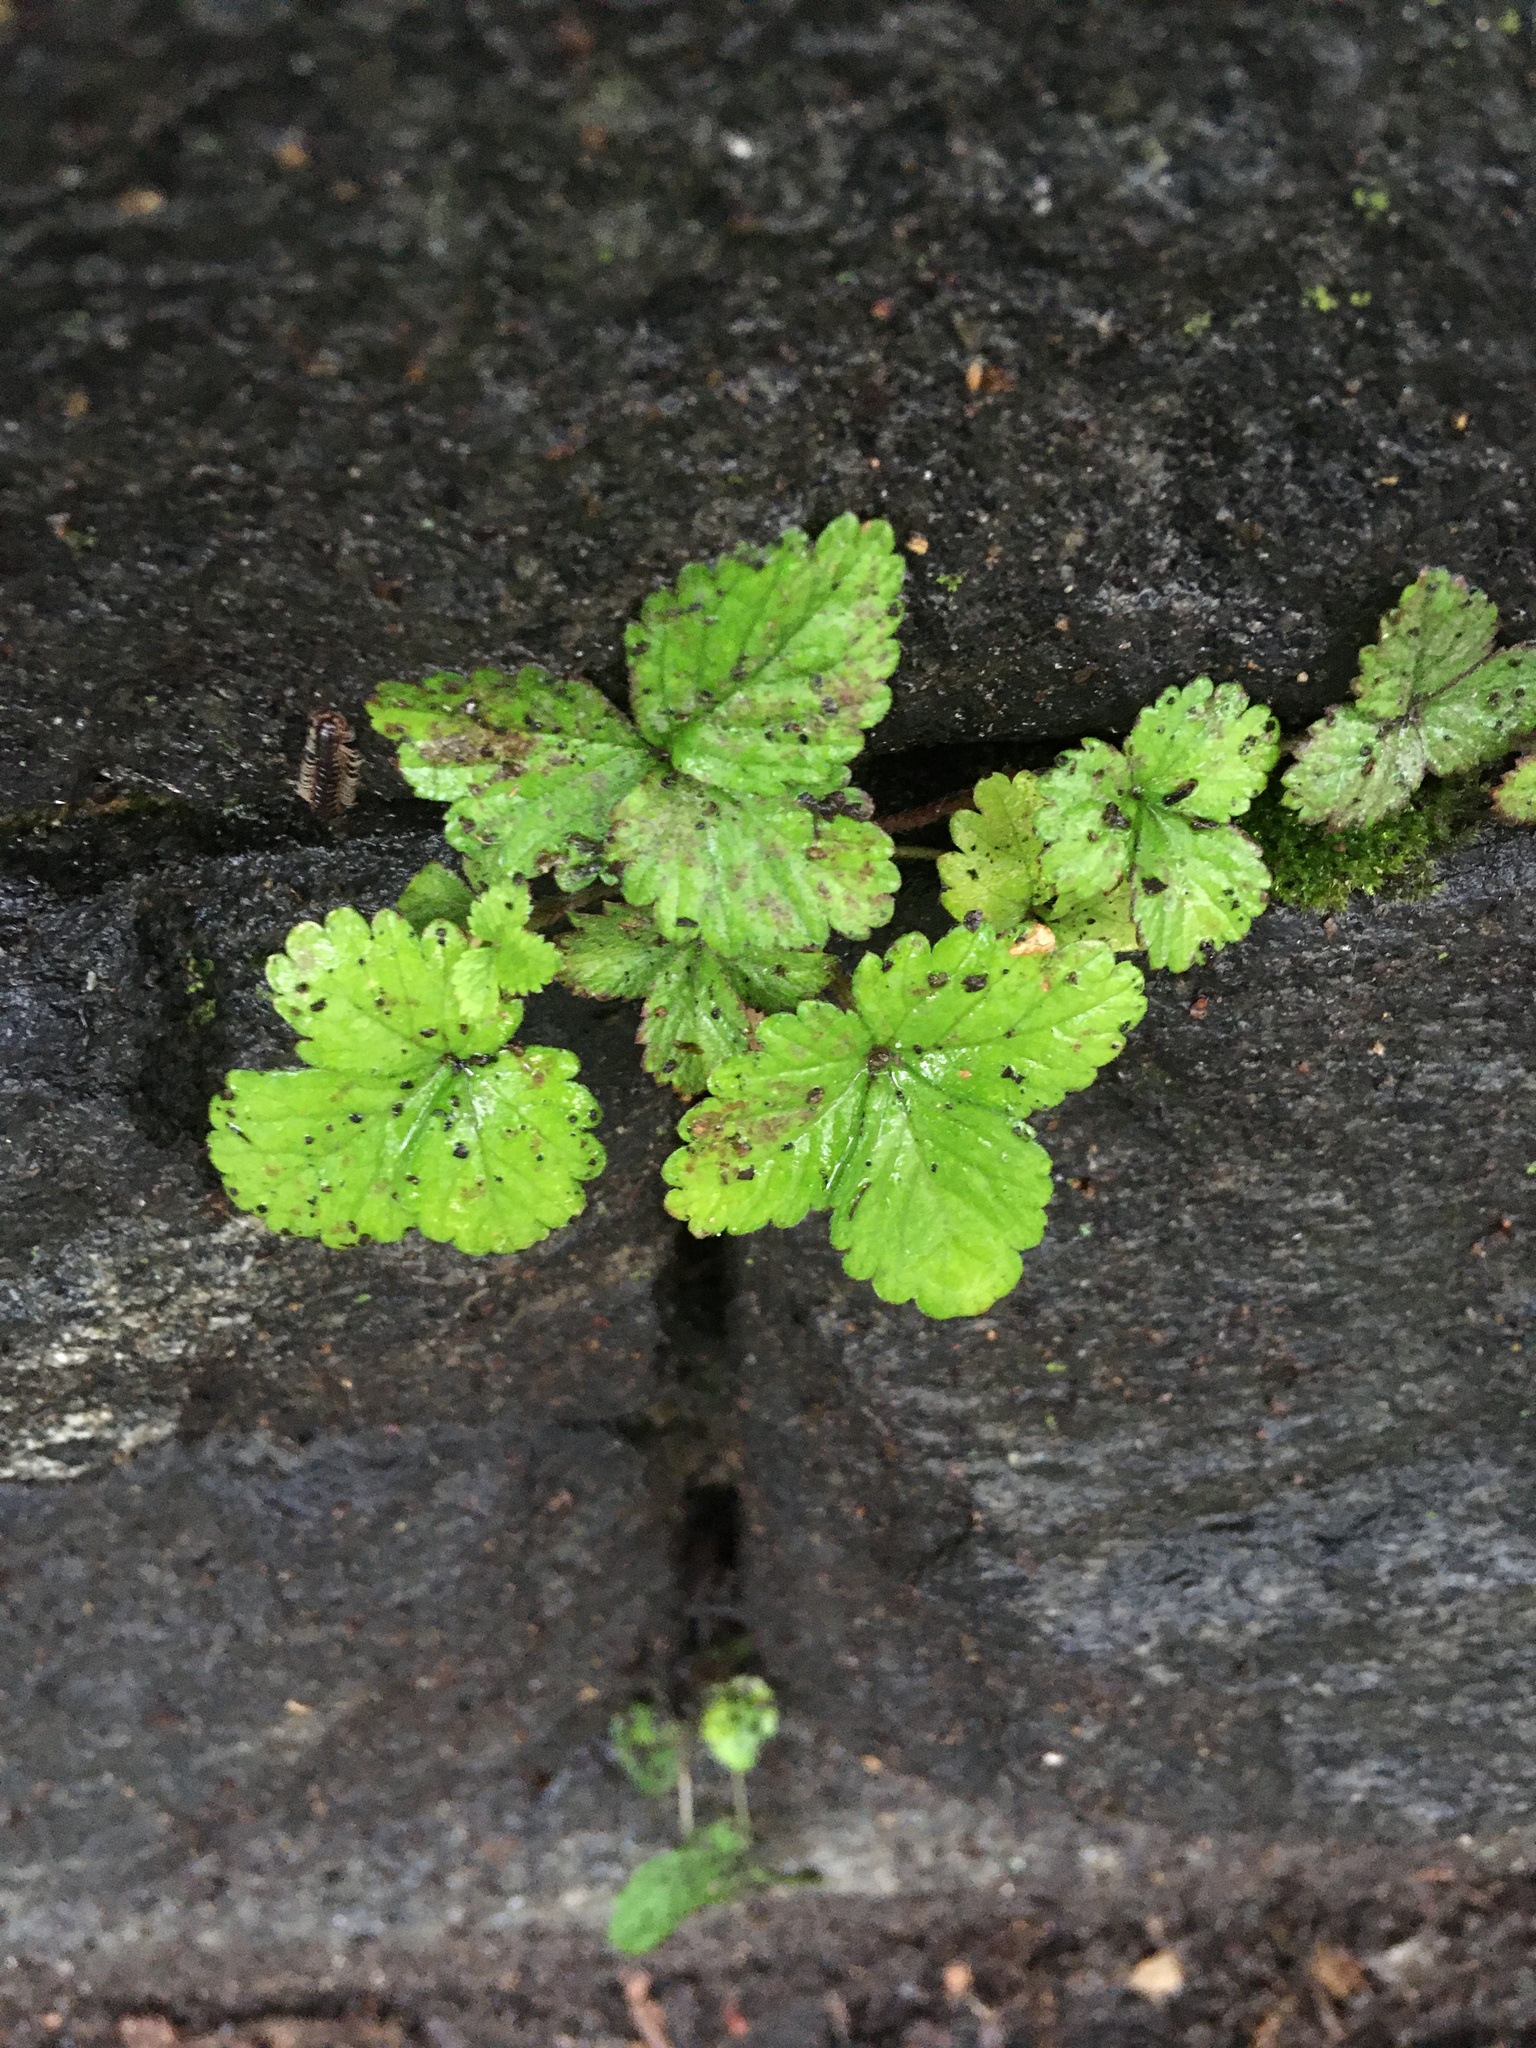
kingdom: Plantae
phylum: Tracheophyta
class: Magnoliopsida
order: Rosales
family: Rosaceae
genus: Potentilla
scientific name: Potentilla indica
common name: Yellow-flowered strawberry
